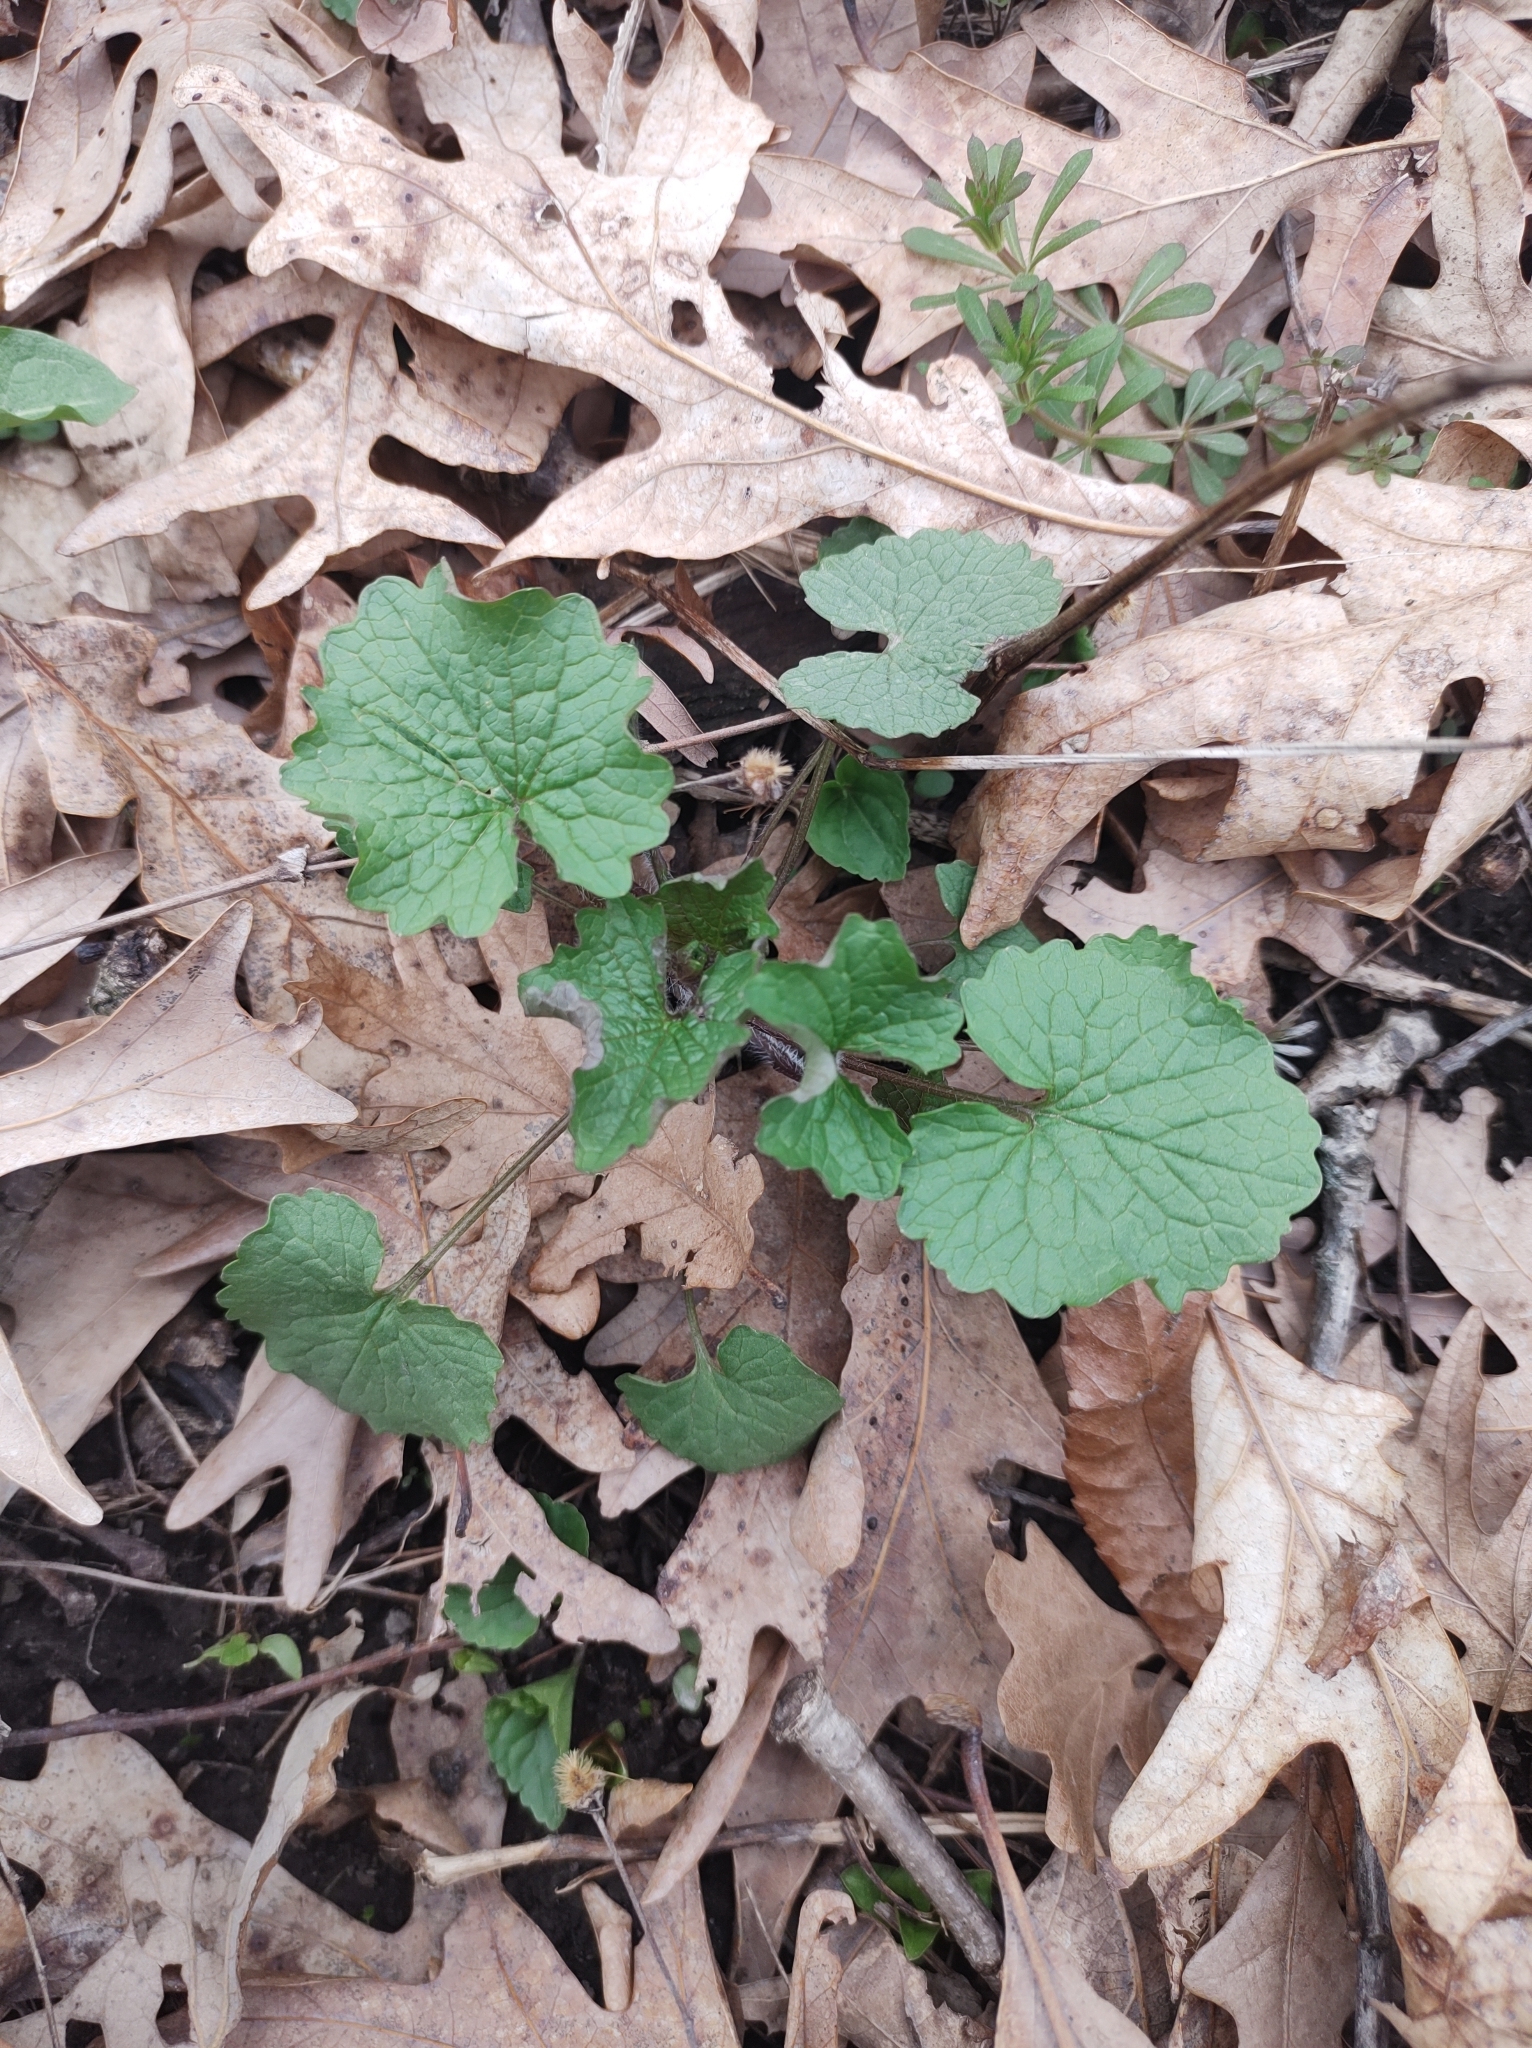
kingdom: Plantae
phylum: Tracheophyta
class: Magnoliopsida
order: Brassicales
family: Brassicaceae
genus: Alliaria
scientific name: Alliaria petiolata
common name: Garlic mustard
